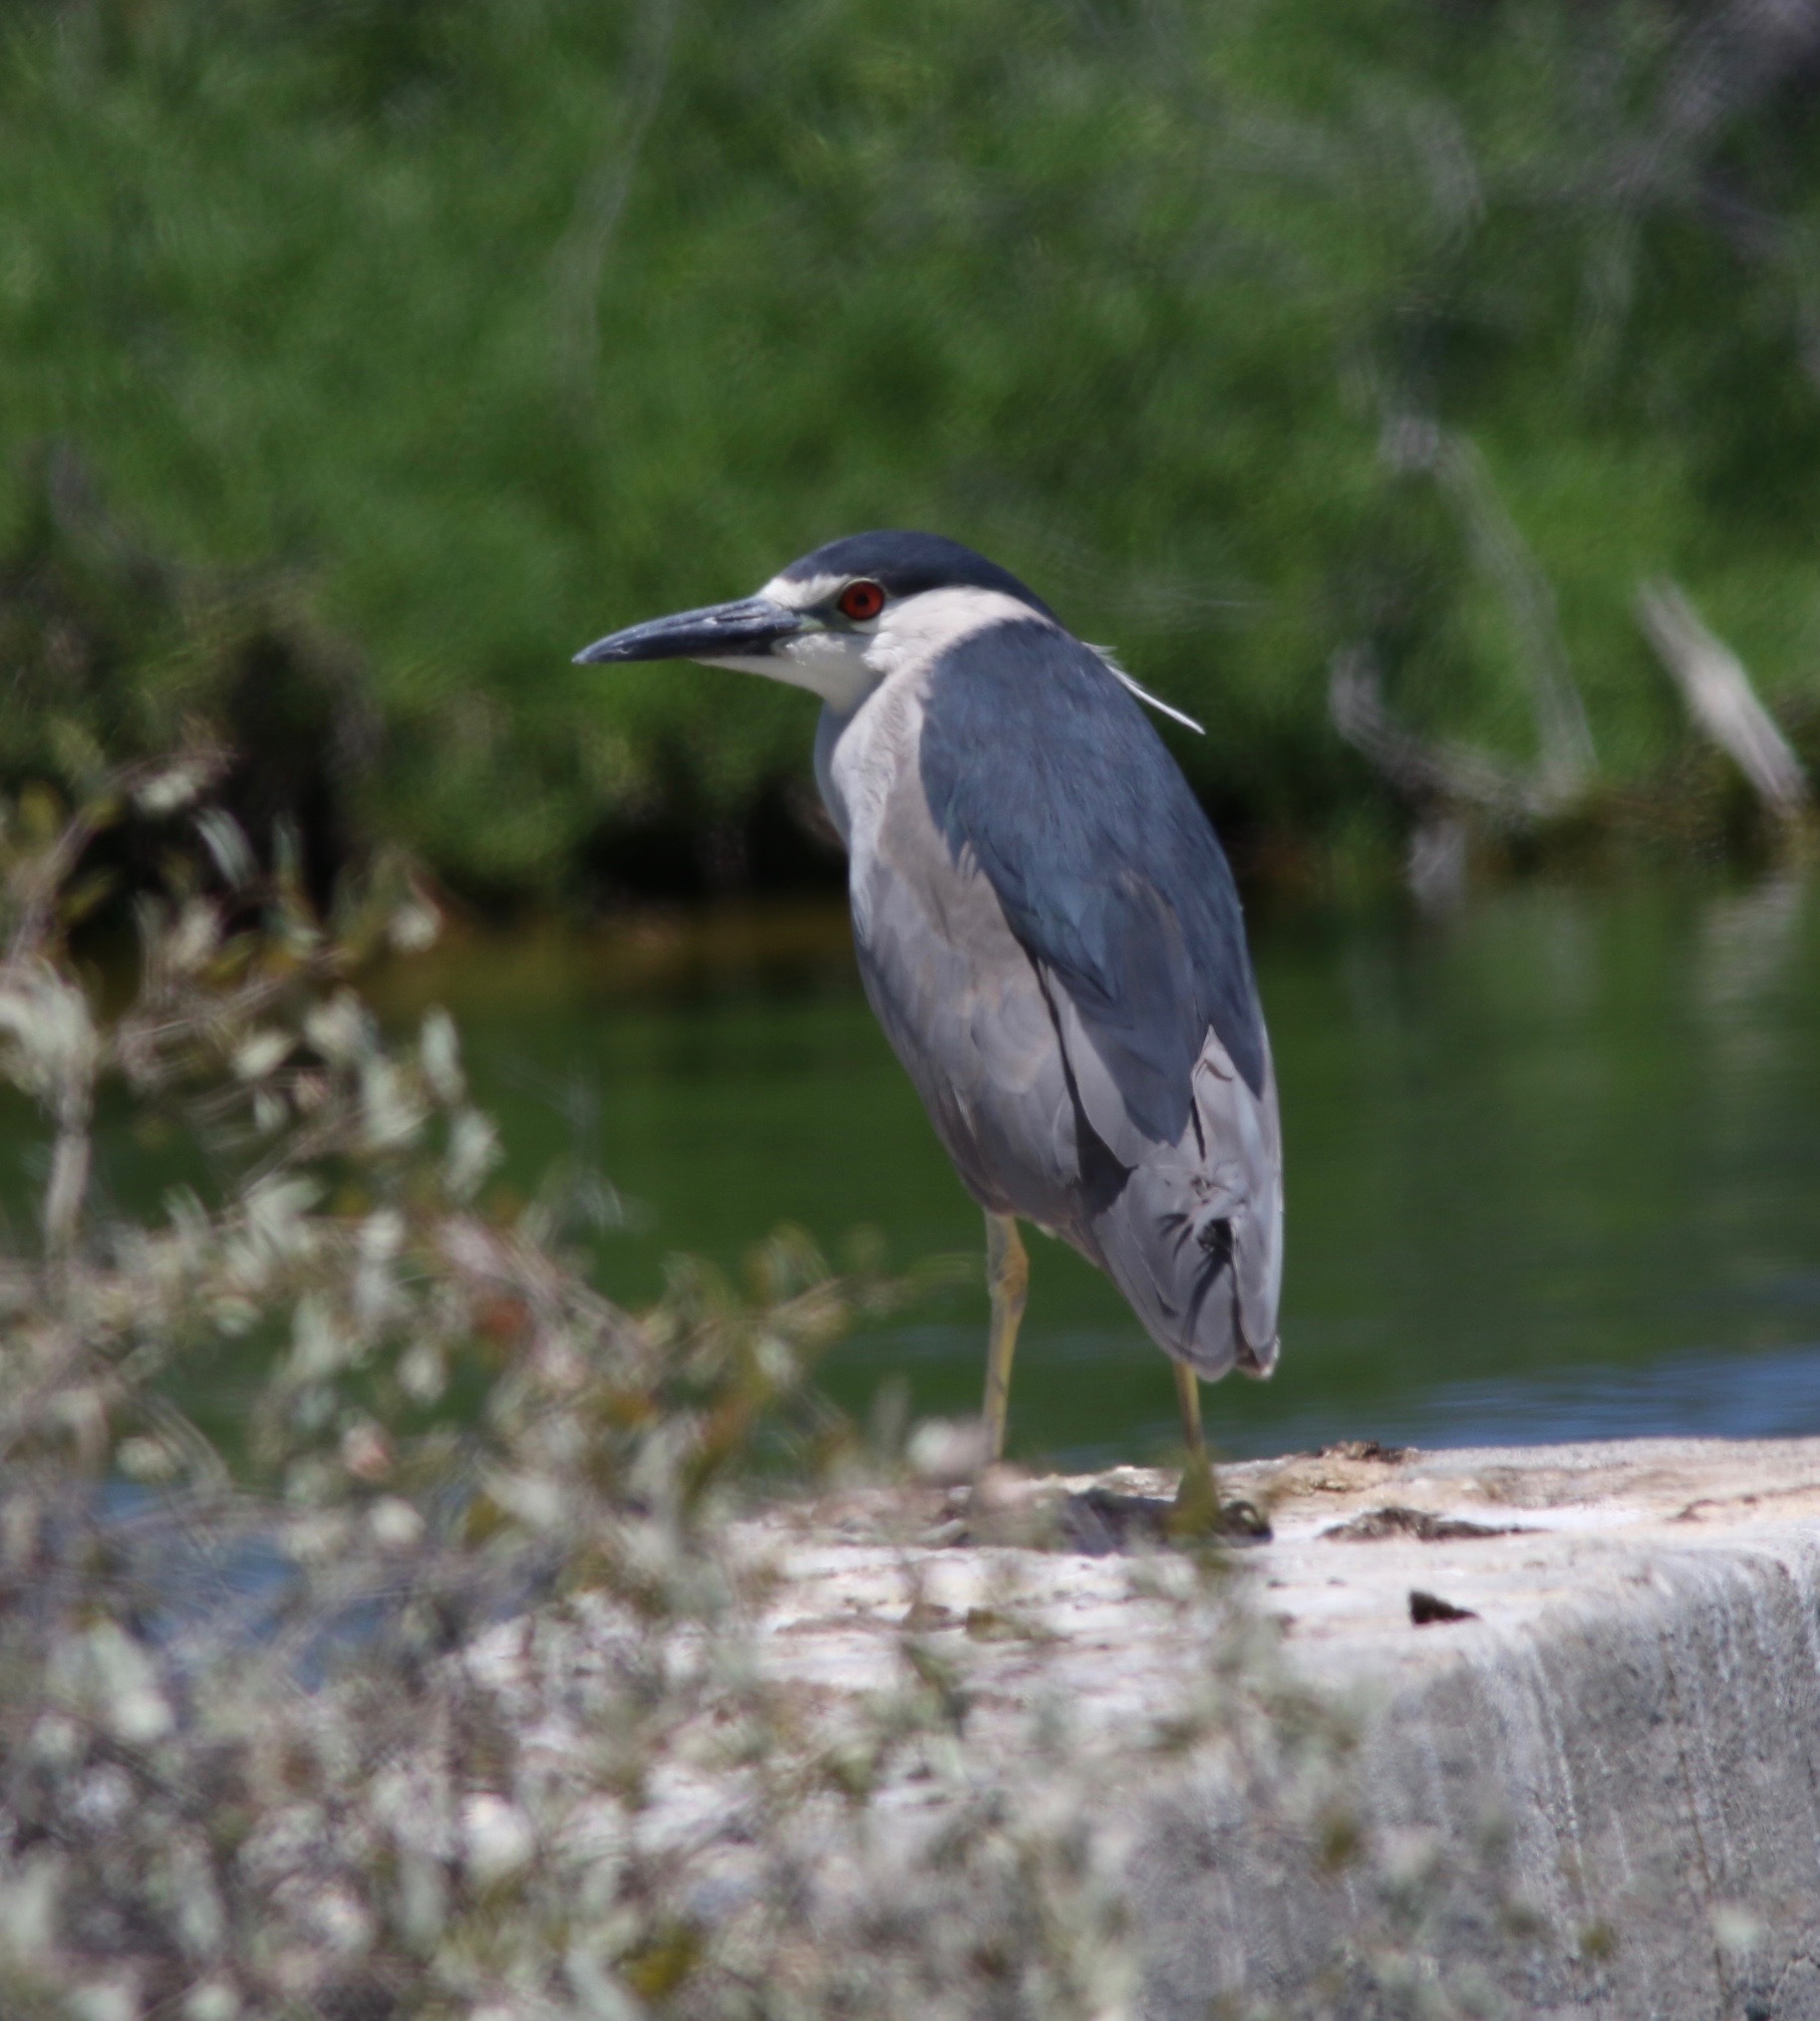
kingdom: Animalia
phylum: Chordata
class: Aves
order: Pelecaniformes
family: Ardeidae
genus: Nycticorax
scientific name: Nycticorax nycticorax
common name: Black-crowned night heron
